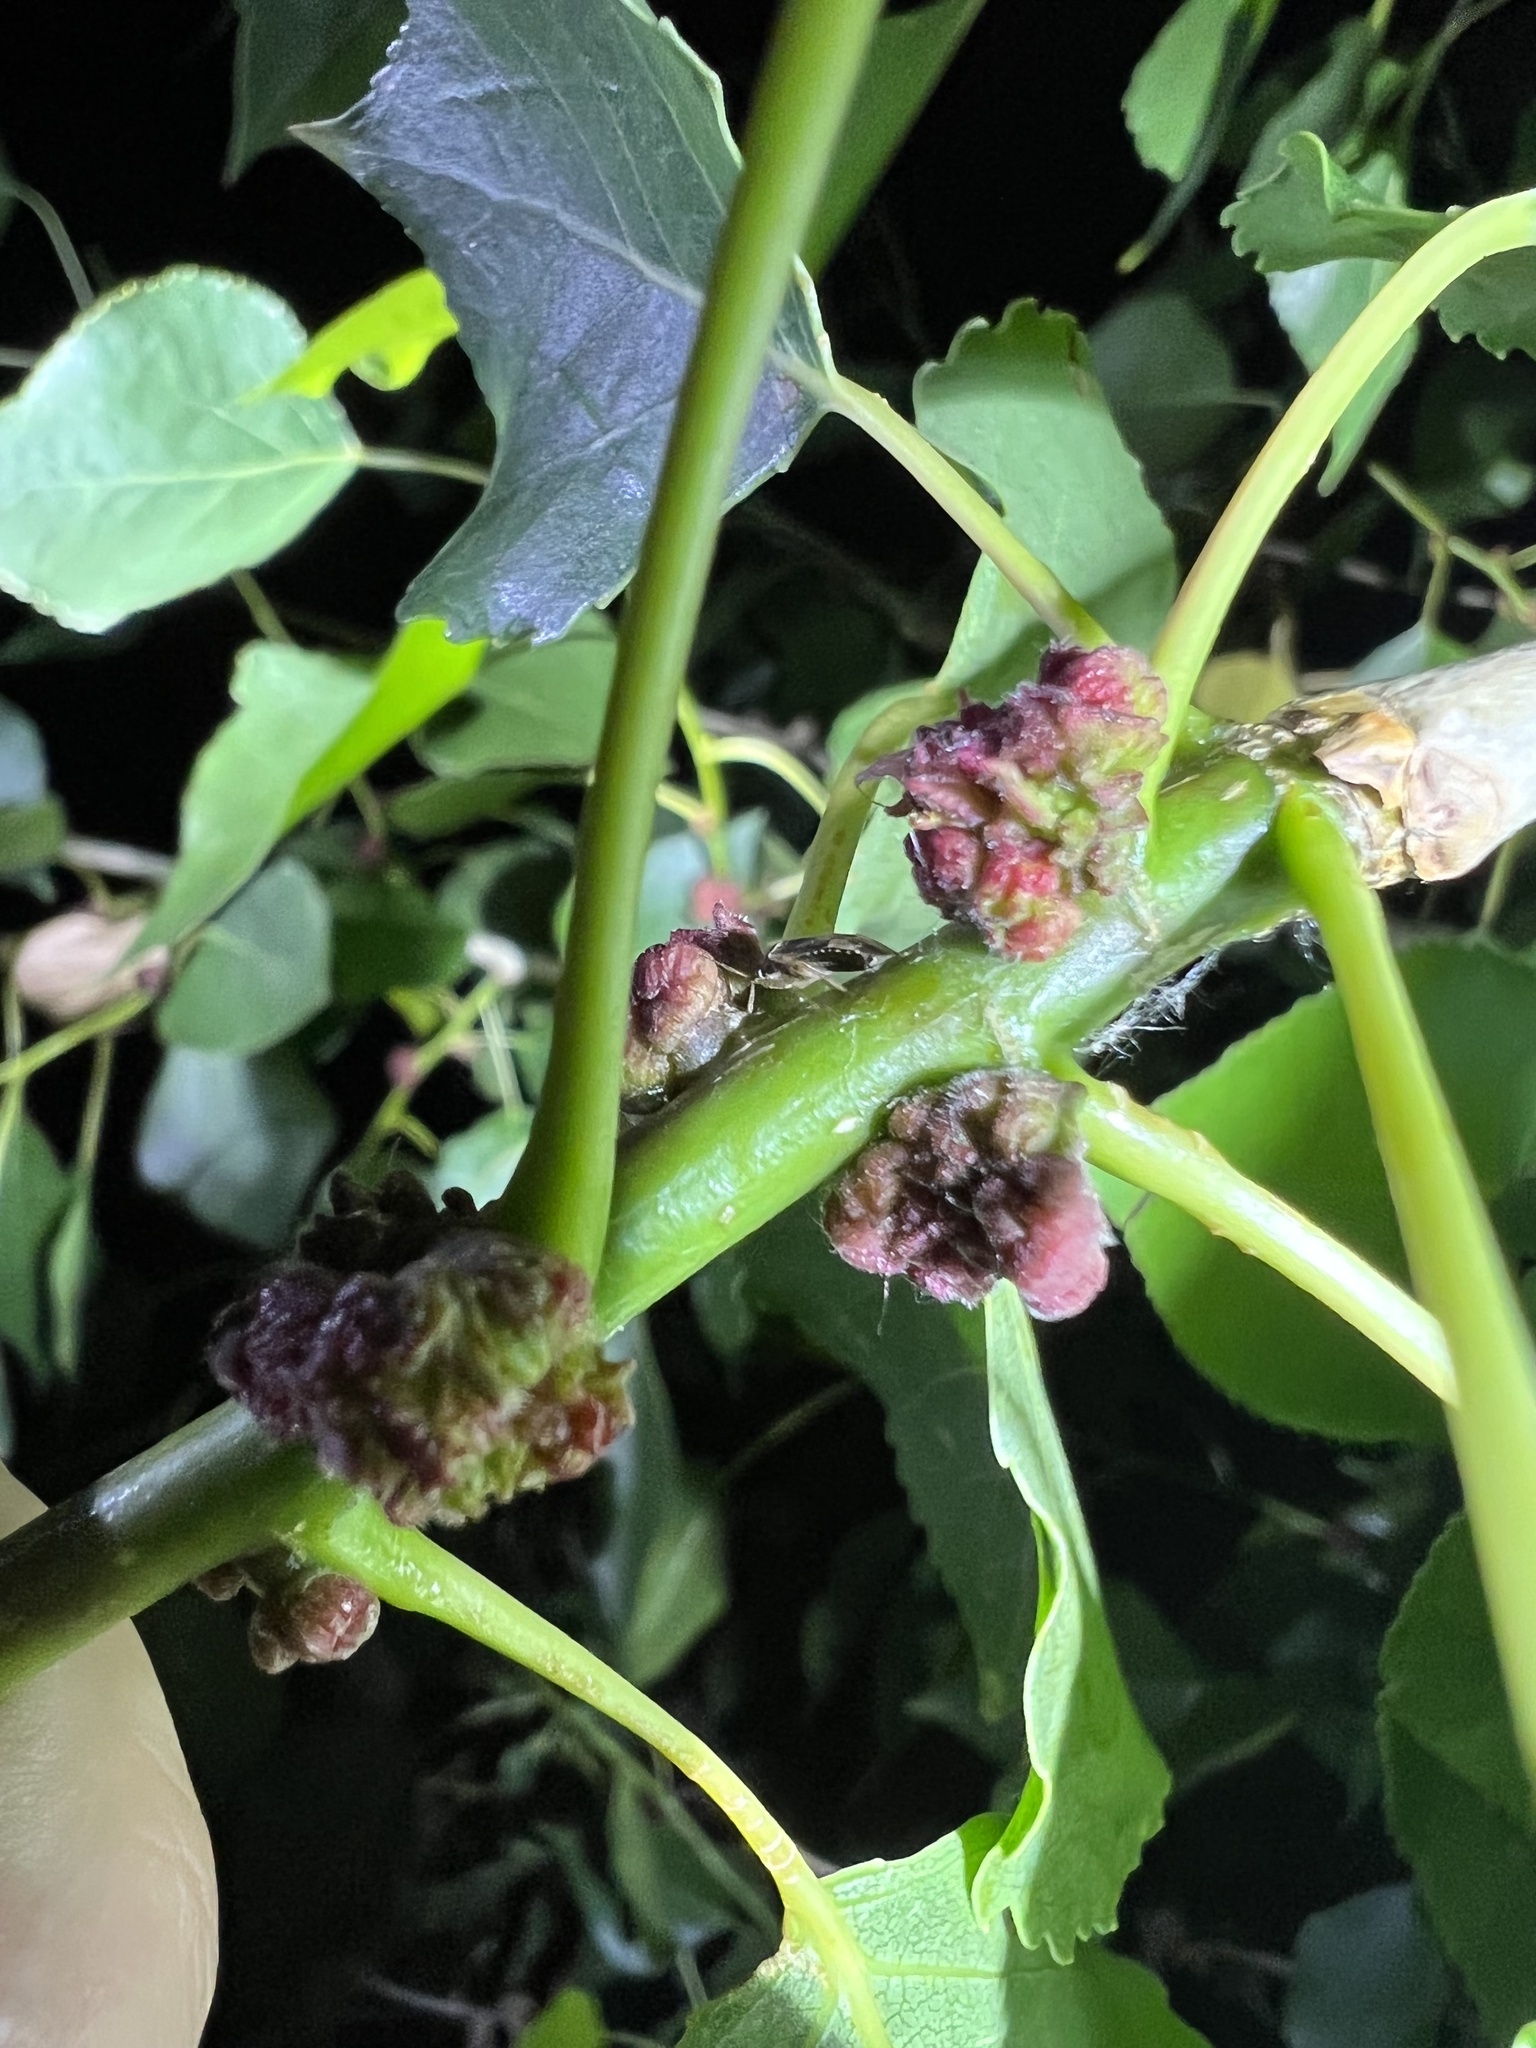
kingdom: Animalia
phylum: Arthropoda
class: Arachnida
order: Trombidiformes
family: Eriophyidae
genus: Aceria
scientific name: Aceria
